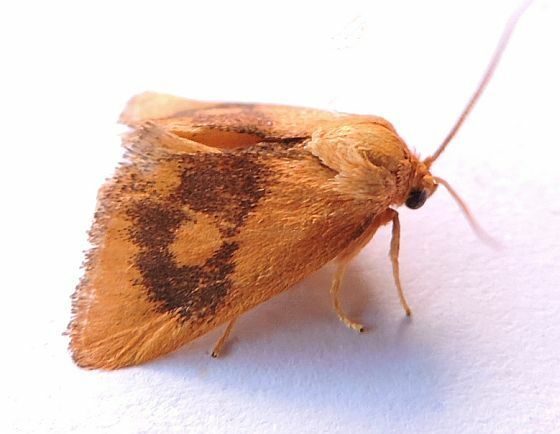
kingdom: Animalia
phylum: Arthropoda
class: Insecta
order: Lepidoptera
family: Limacodidae
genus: Tortricidia
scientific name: Tortricidia flexuosa
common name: Abbreviated button slug moth
